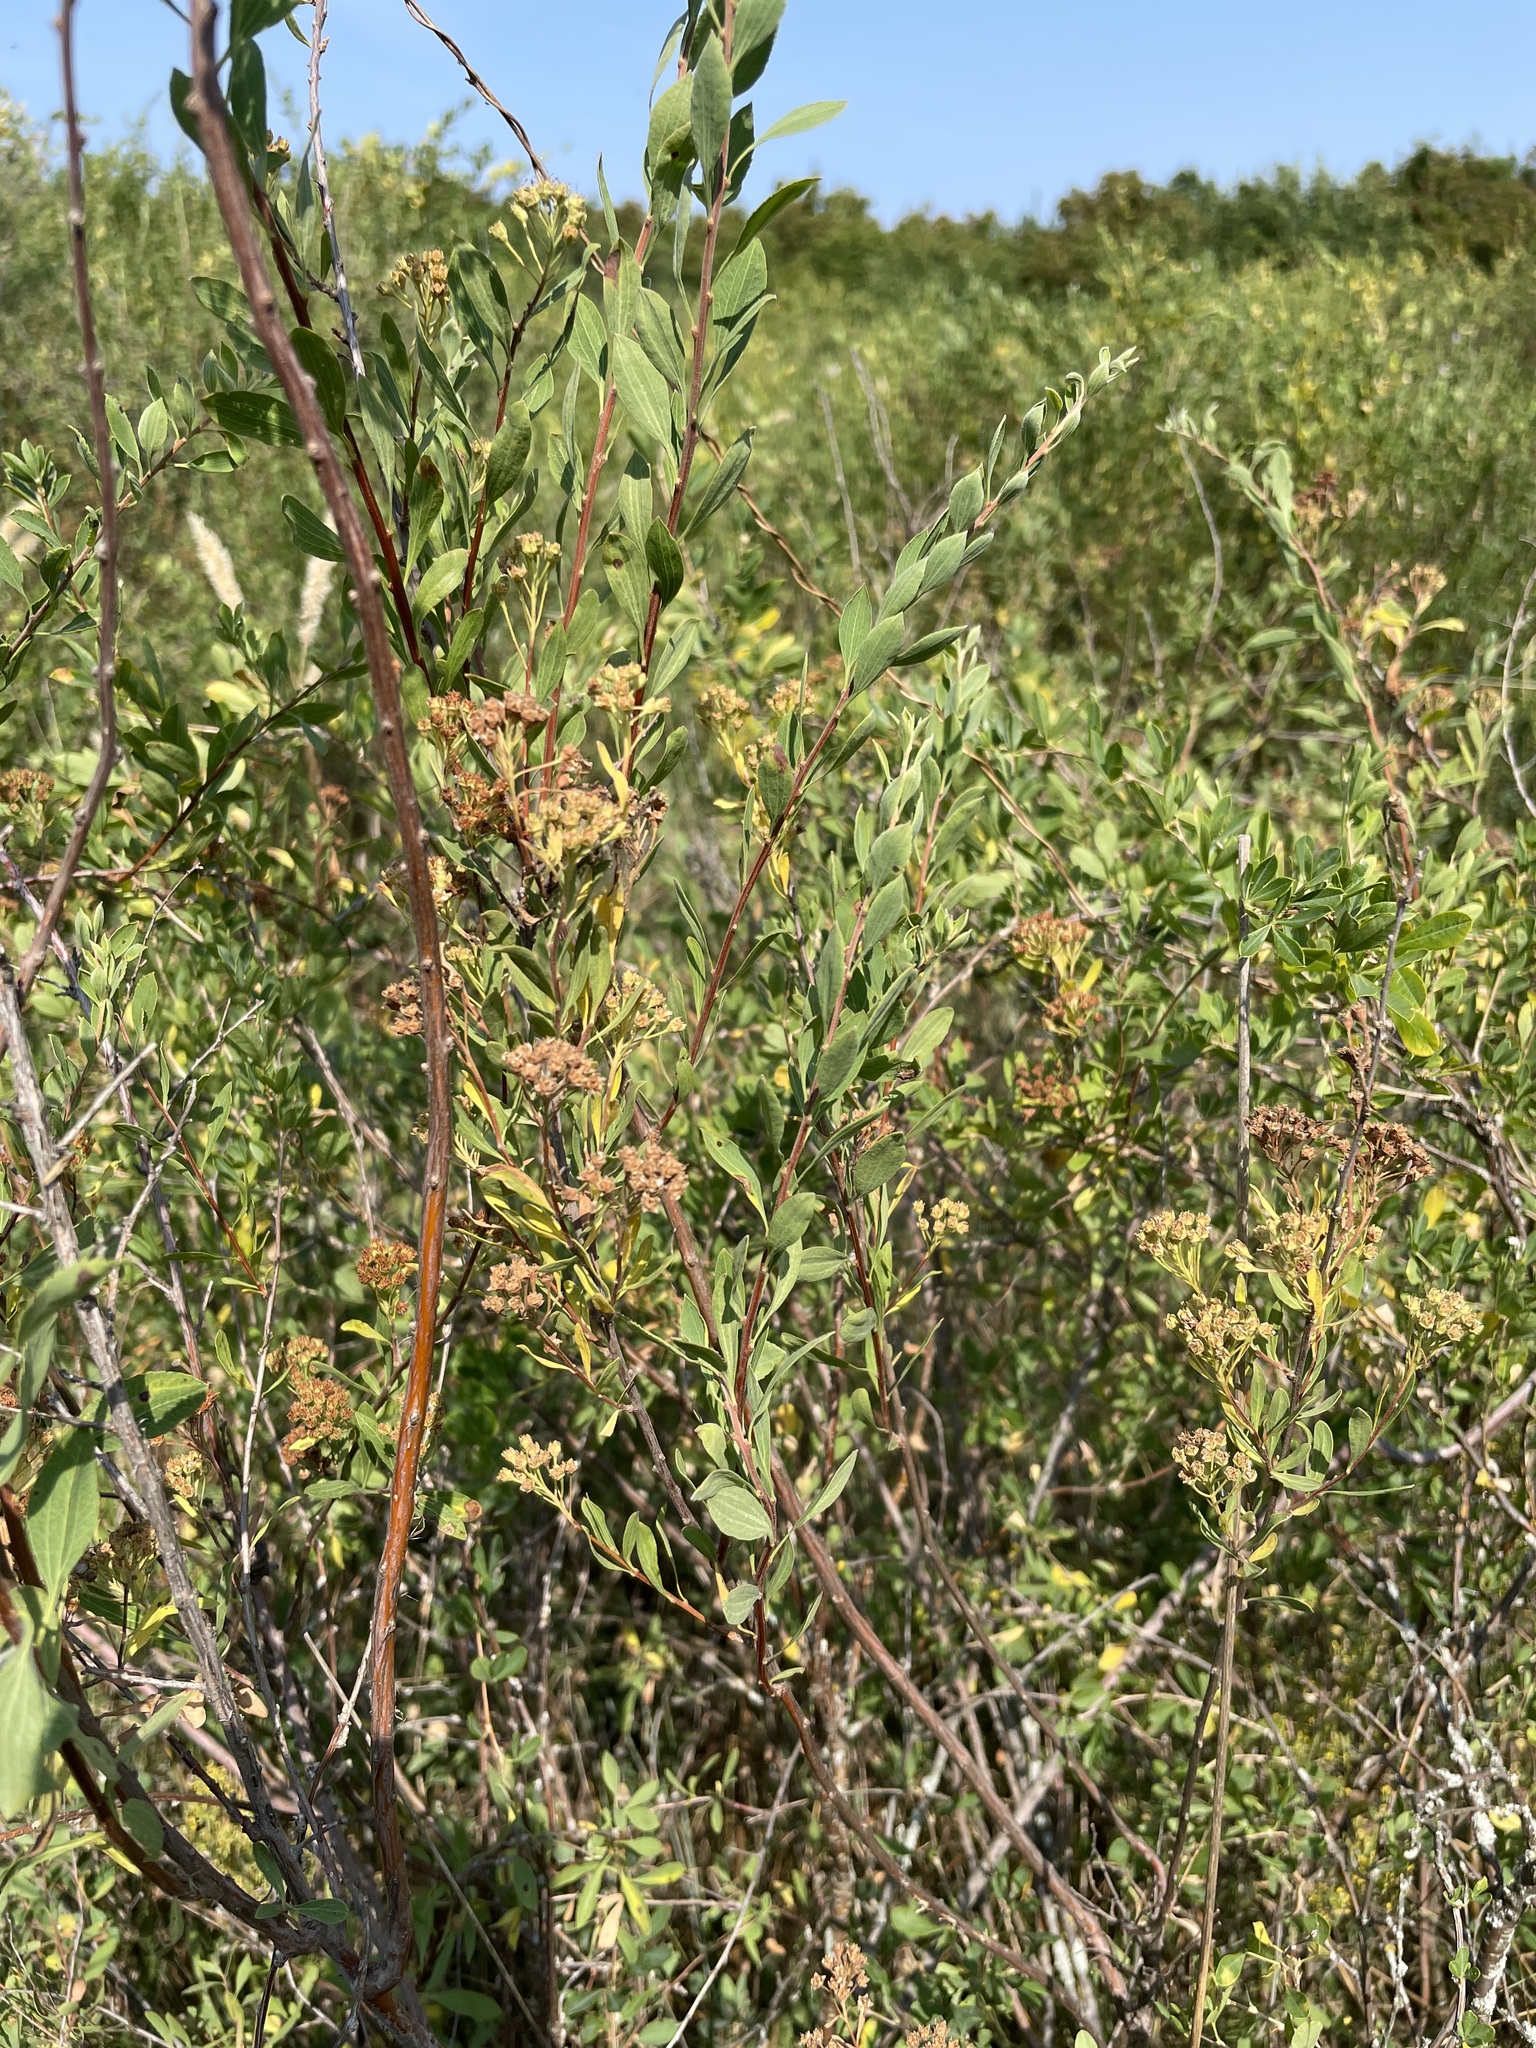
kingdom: Plantae
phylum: Tracheophyta
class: Magnoliopsida
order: Rosales
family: Rosaceae
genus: Spiraea
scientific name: Spiraea crenata
